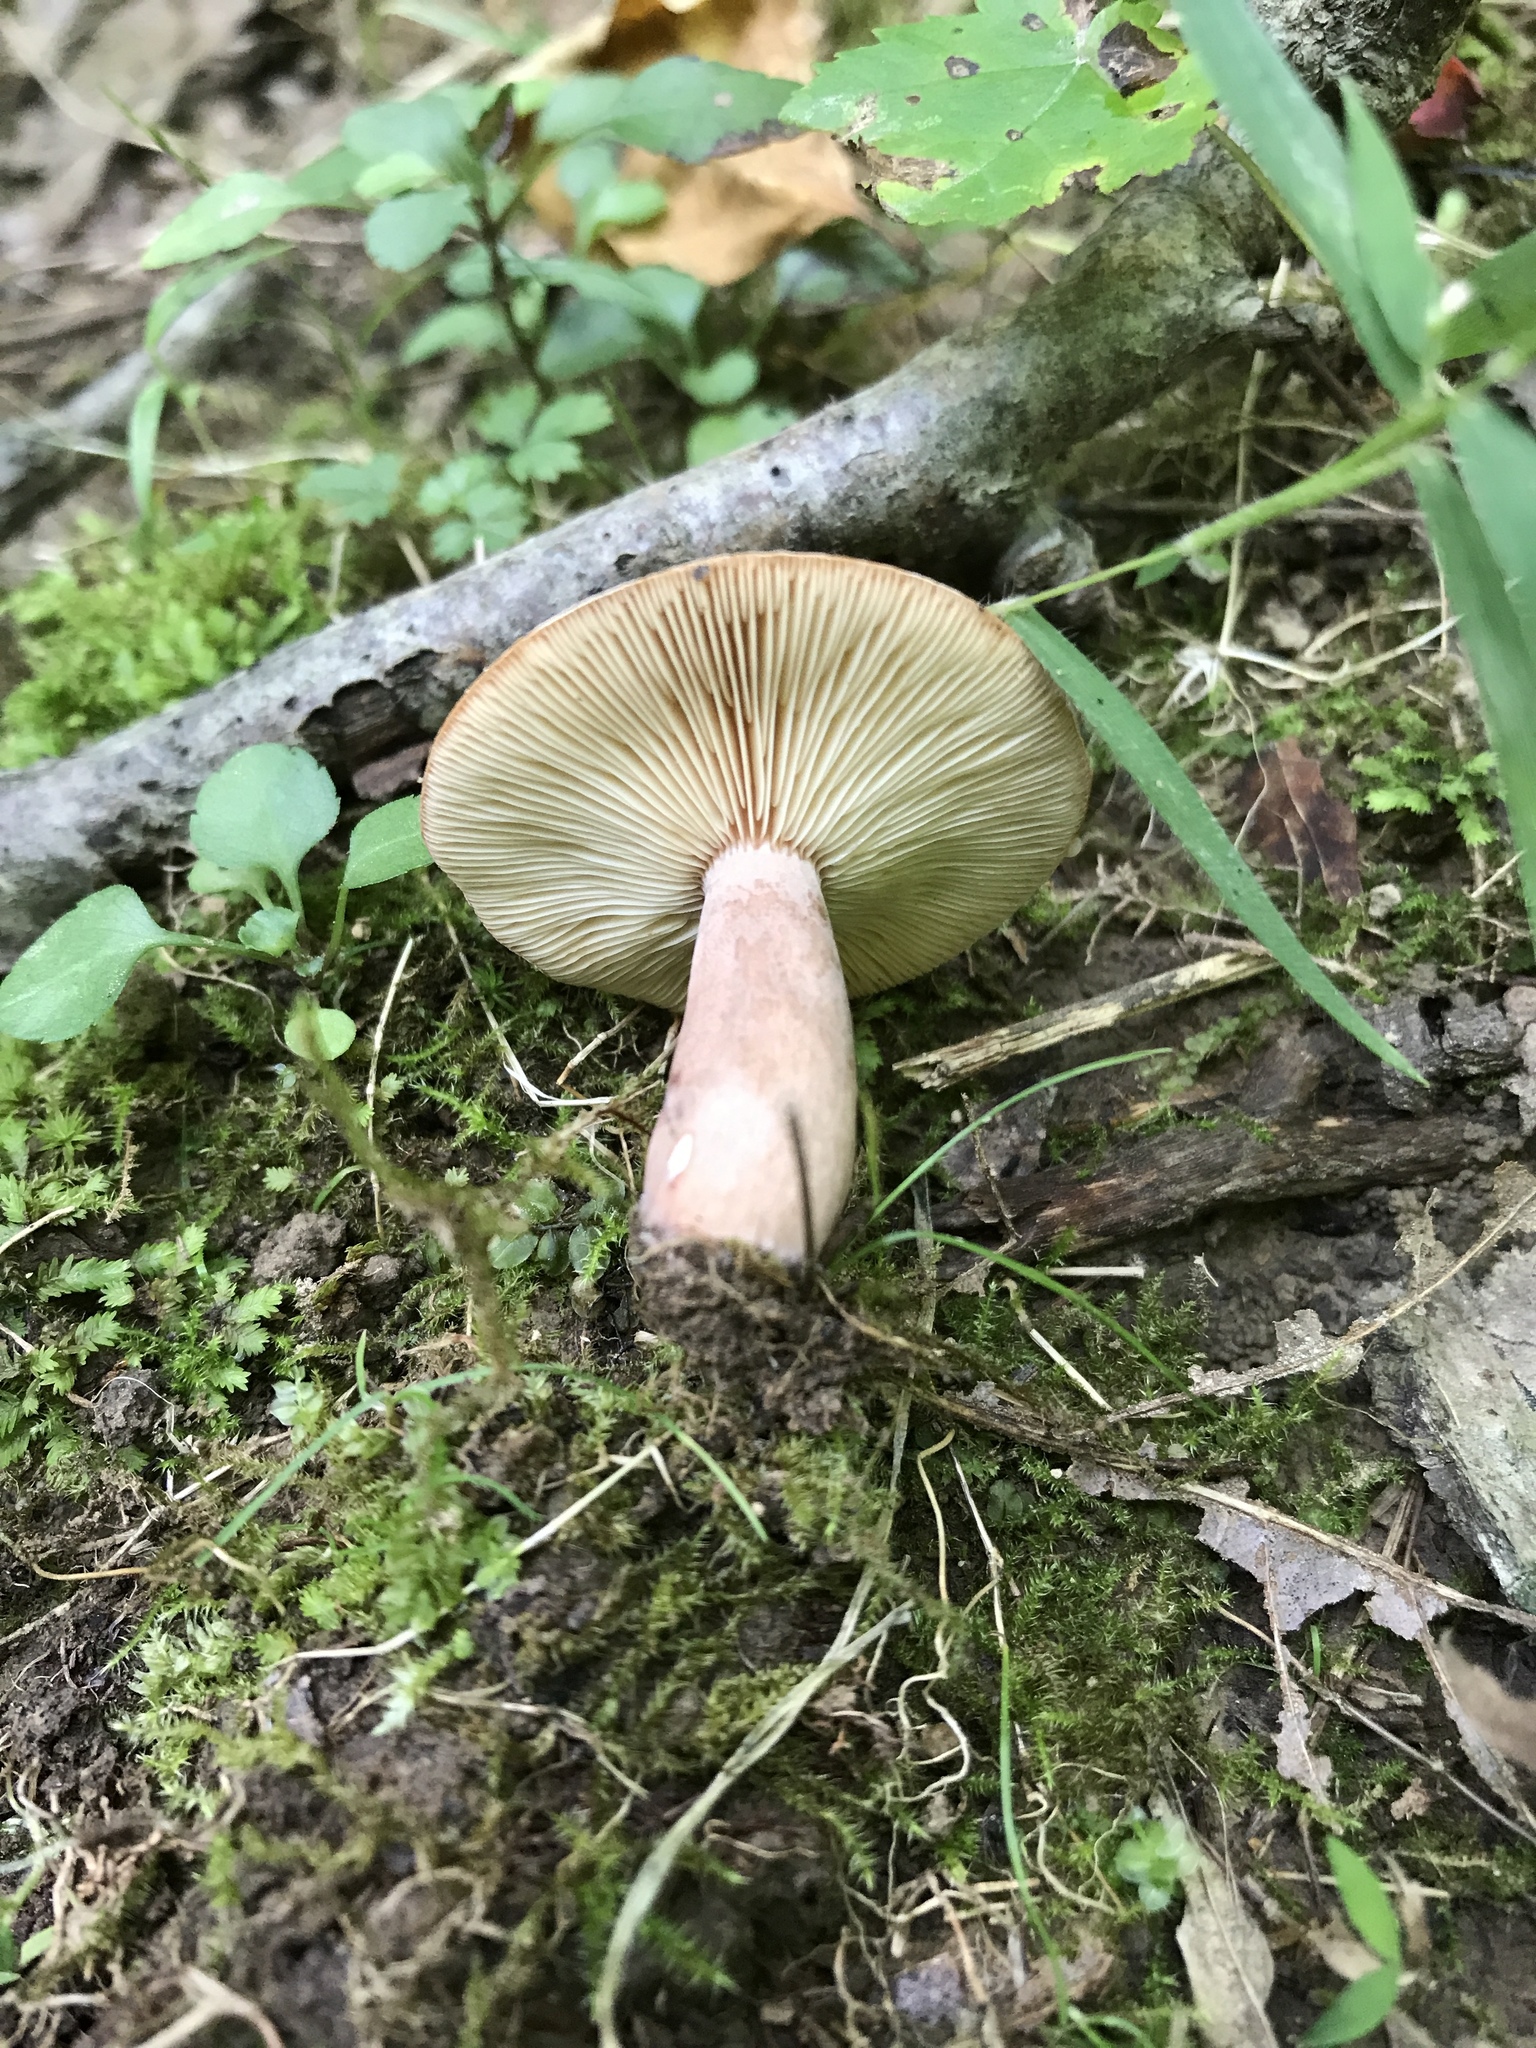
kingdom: Fungi
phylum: Basidiomycota
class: Agaricomycetes
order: Russulales
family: Russulaceae
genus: Lactarius
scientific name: Lactarius mutabilis
